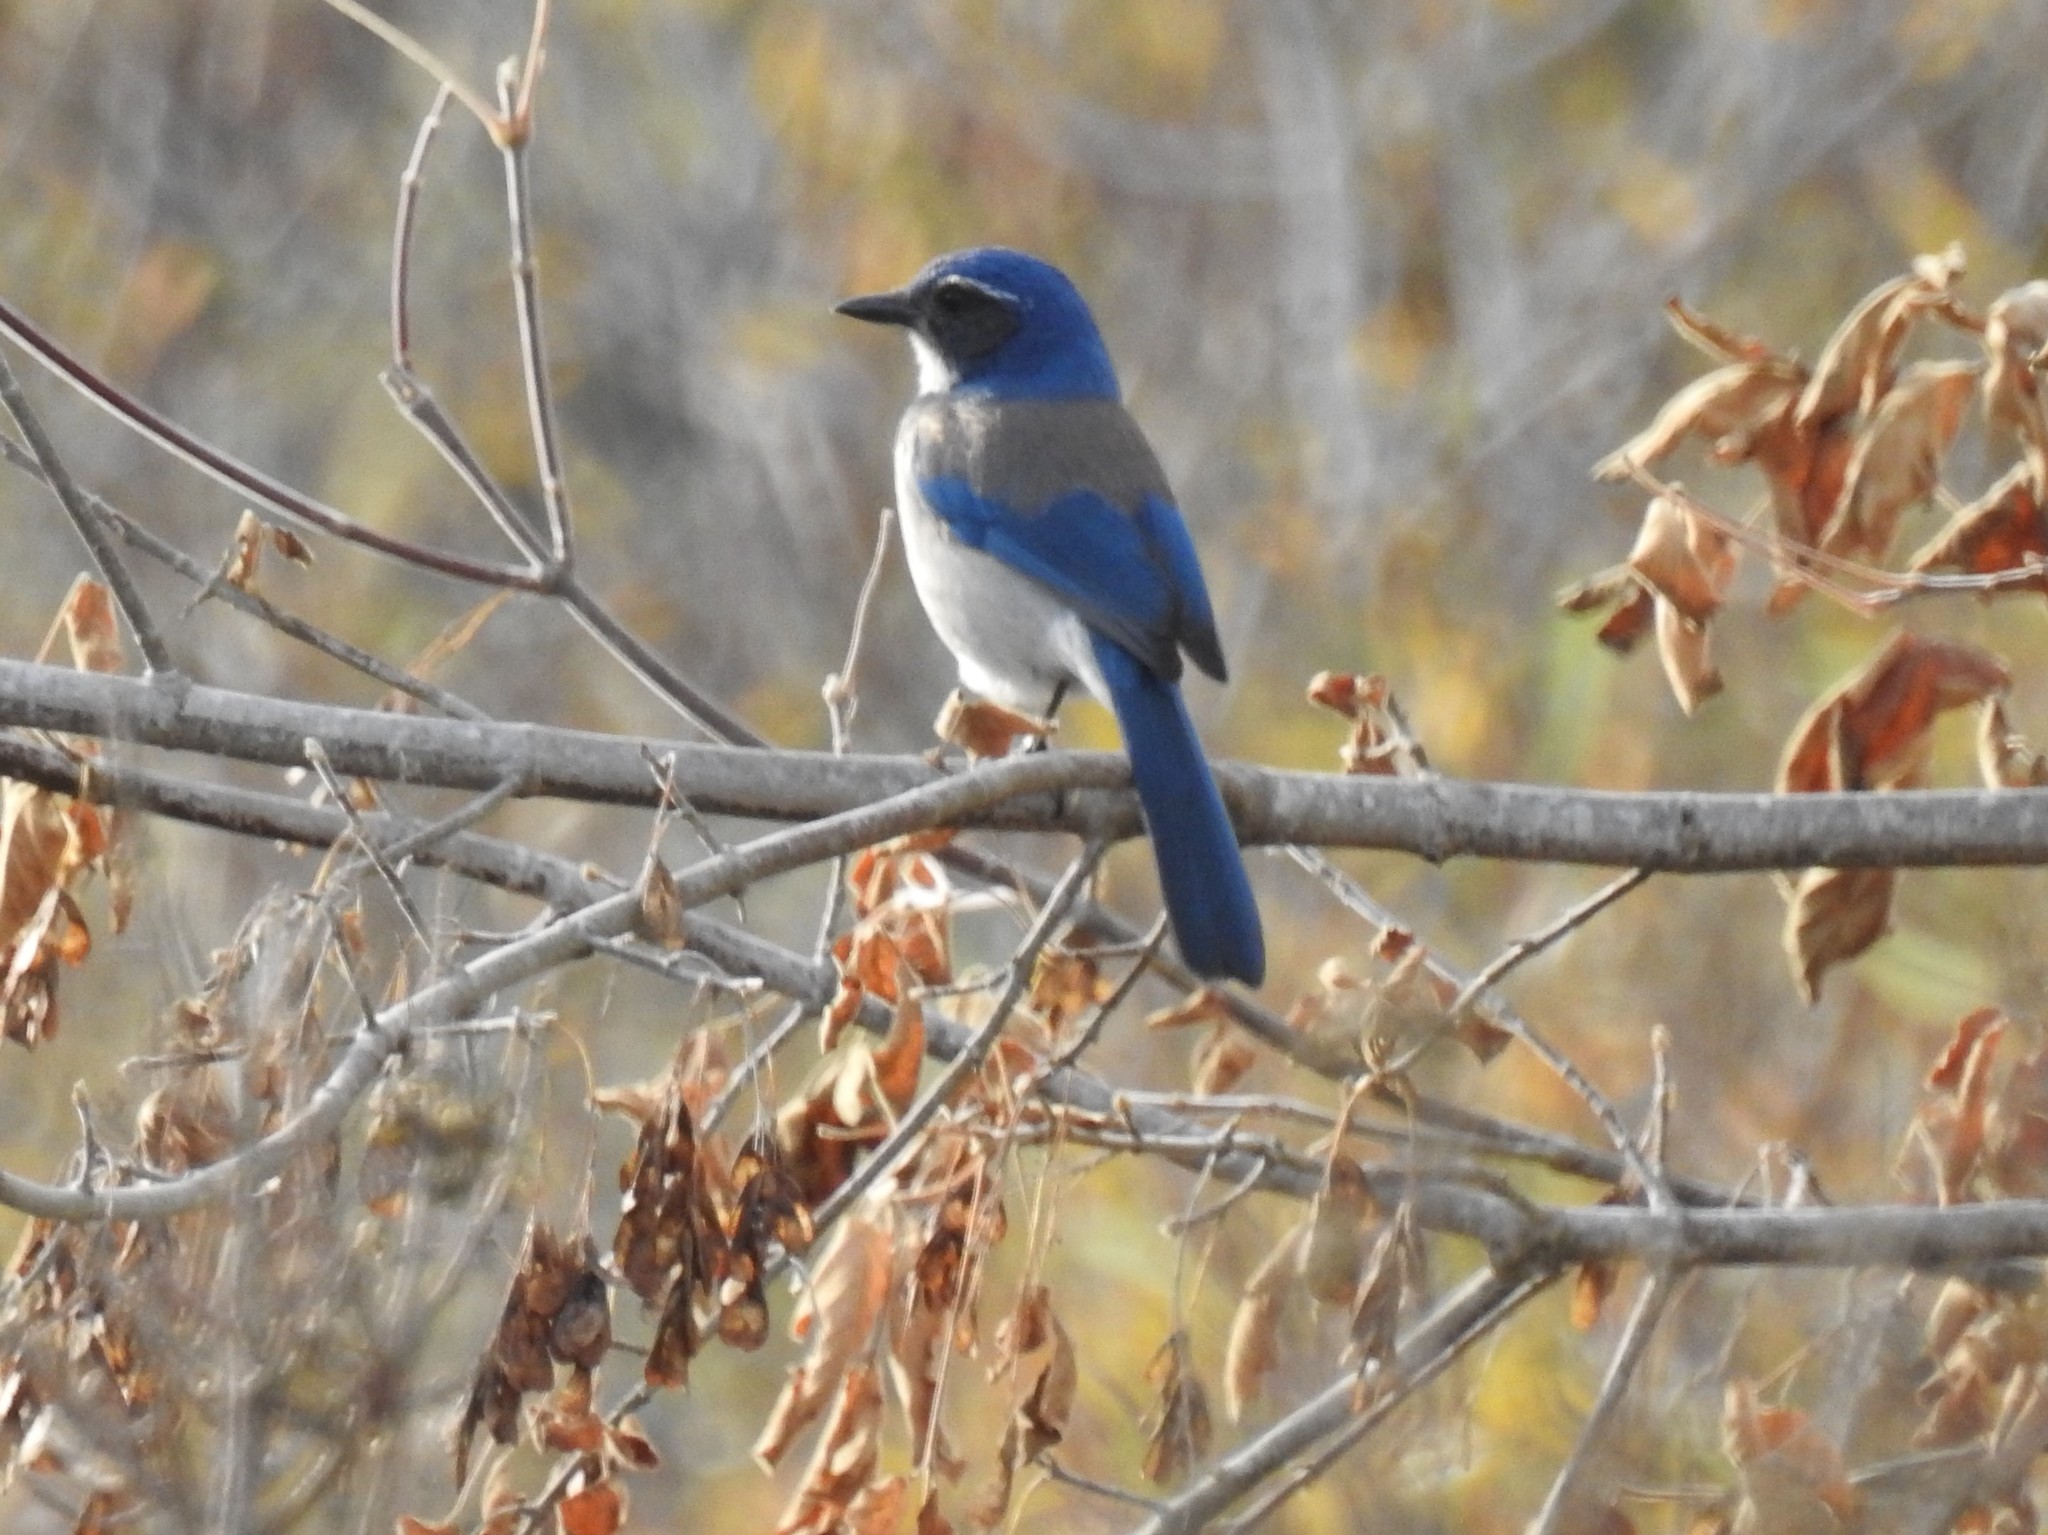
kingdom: Animalia
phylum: Chordata
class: Aves
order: Passeriformes
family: Corvidae
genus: Aphelocoma
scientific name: Aphelocoma californica
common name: California scrub-jay
